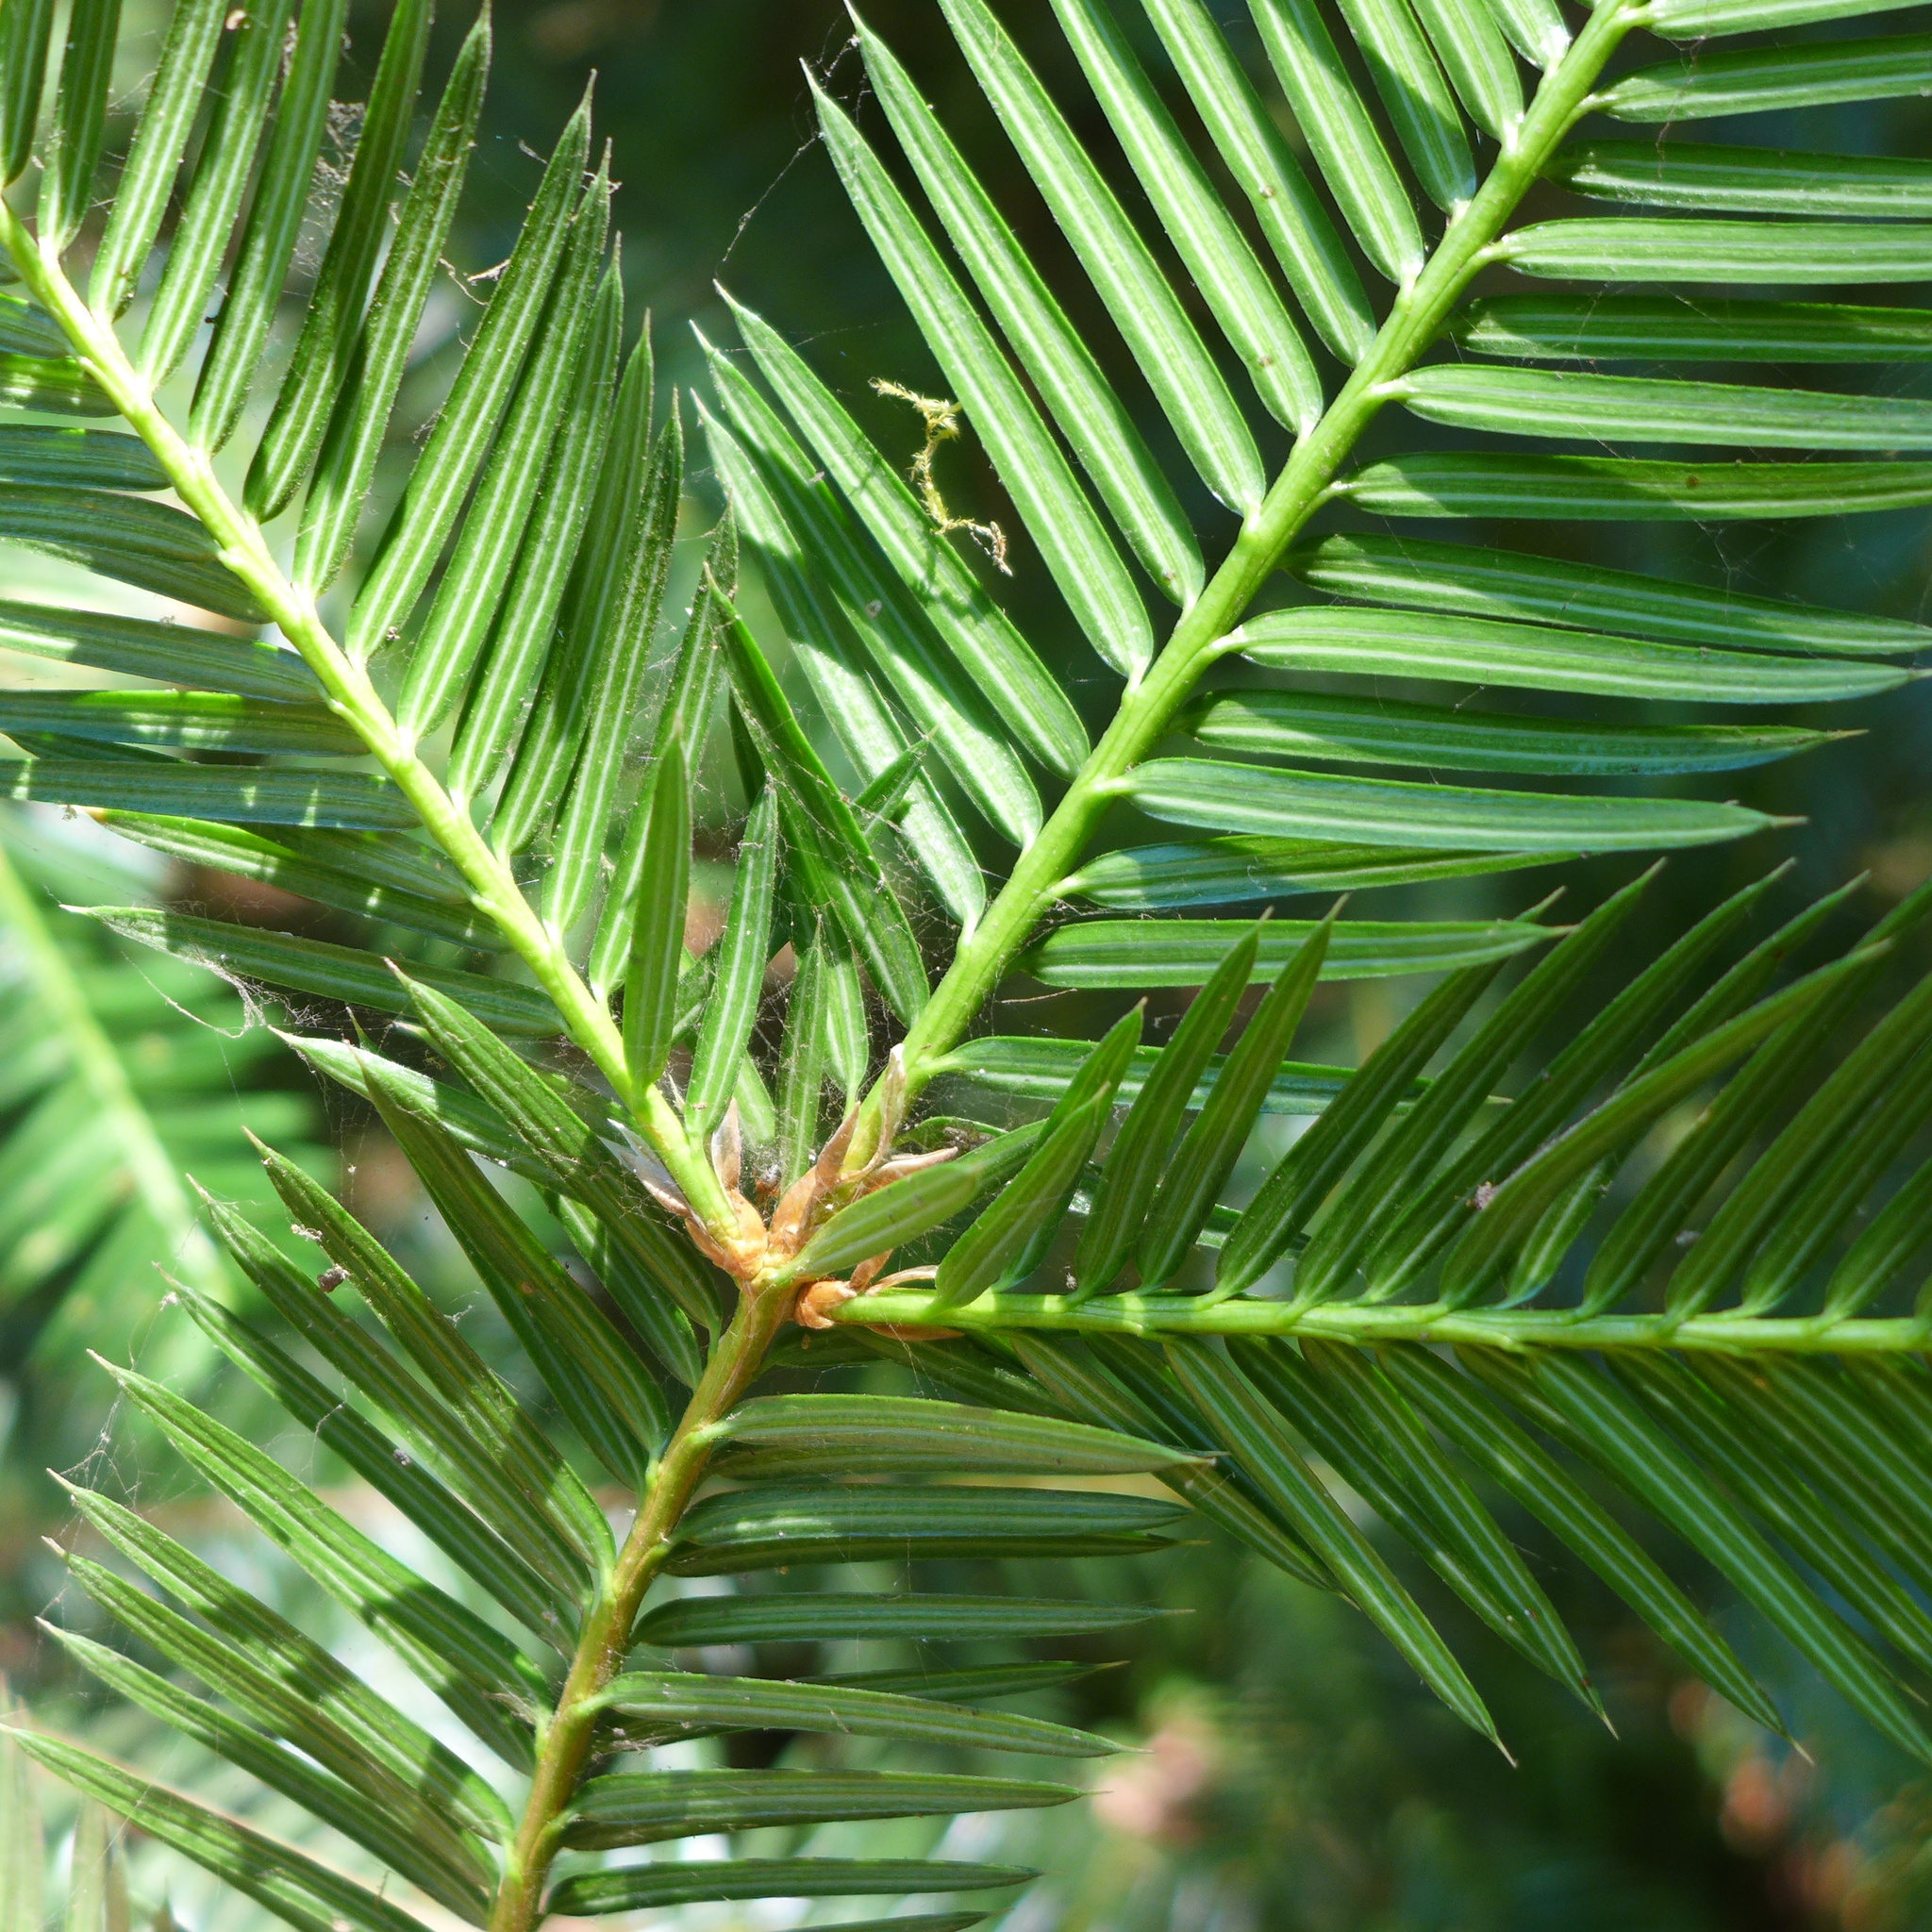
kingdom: Plantae
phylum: Tracheophyta
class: Pinopsida
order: Pinales
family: Taxaceae
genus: Torreya
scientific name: Torreya californica
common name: California torreya
